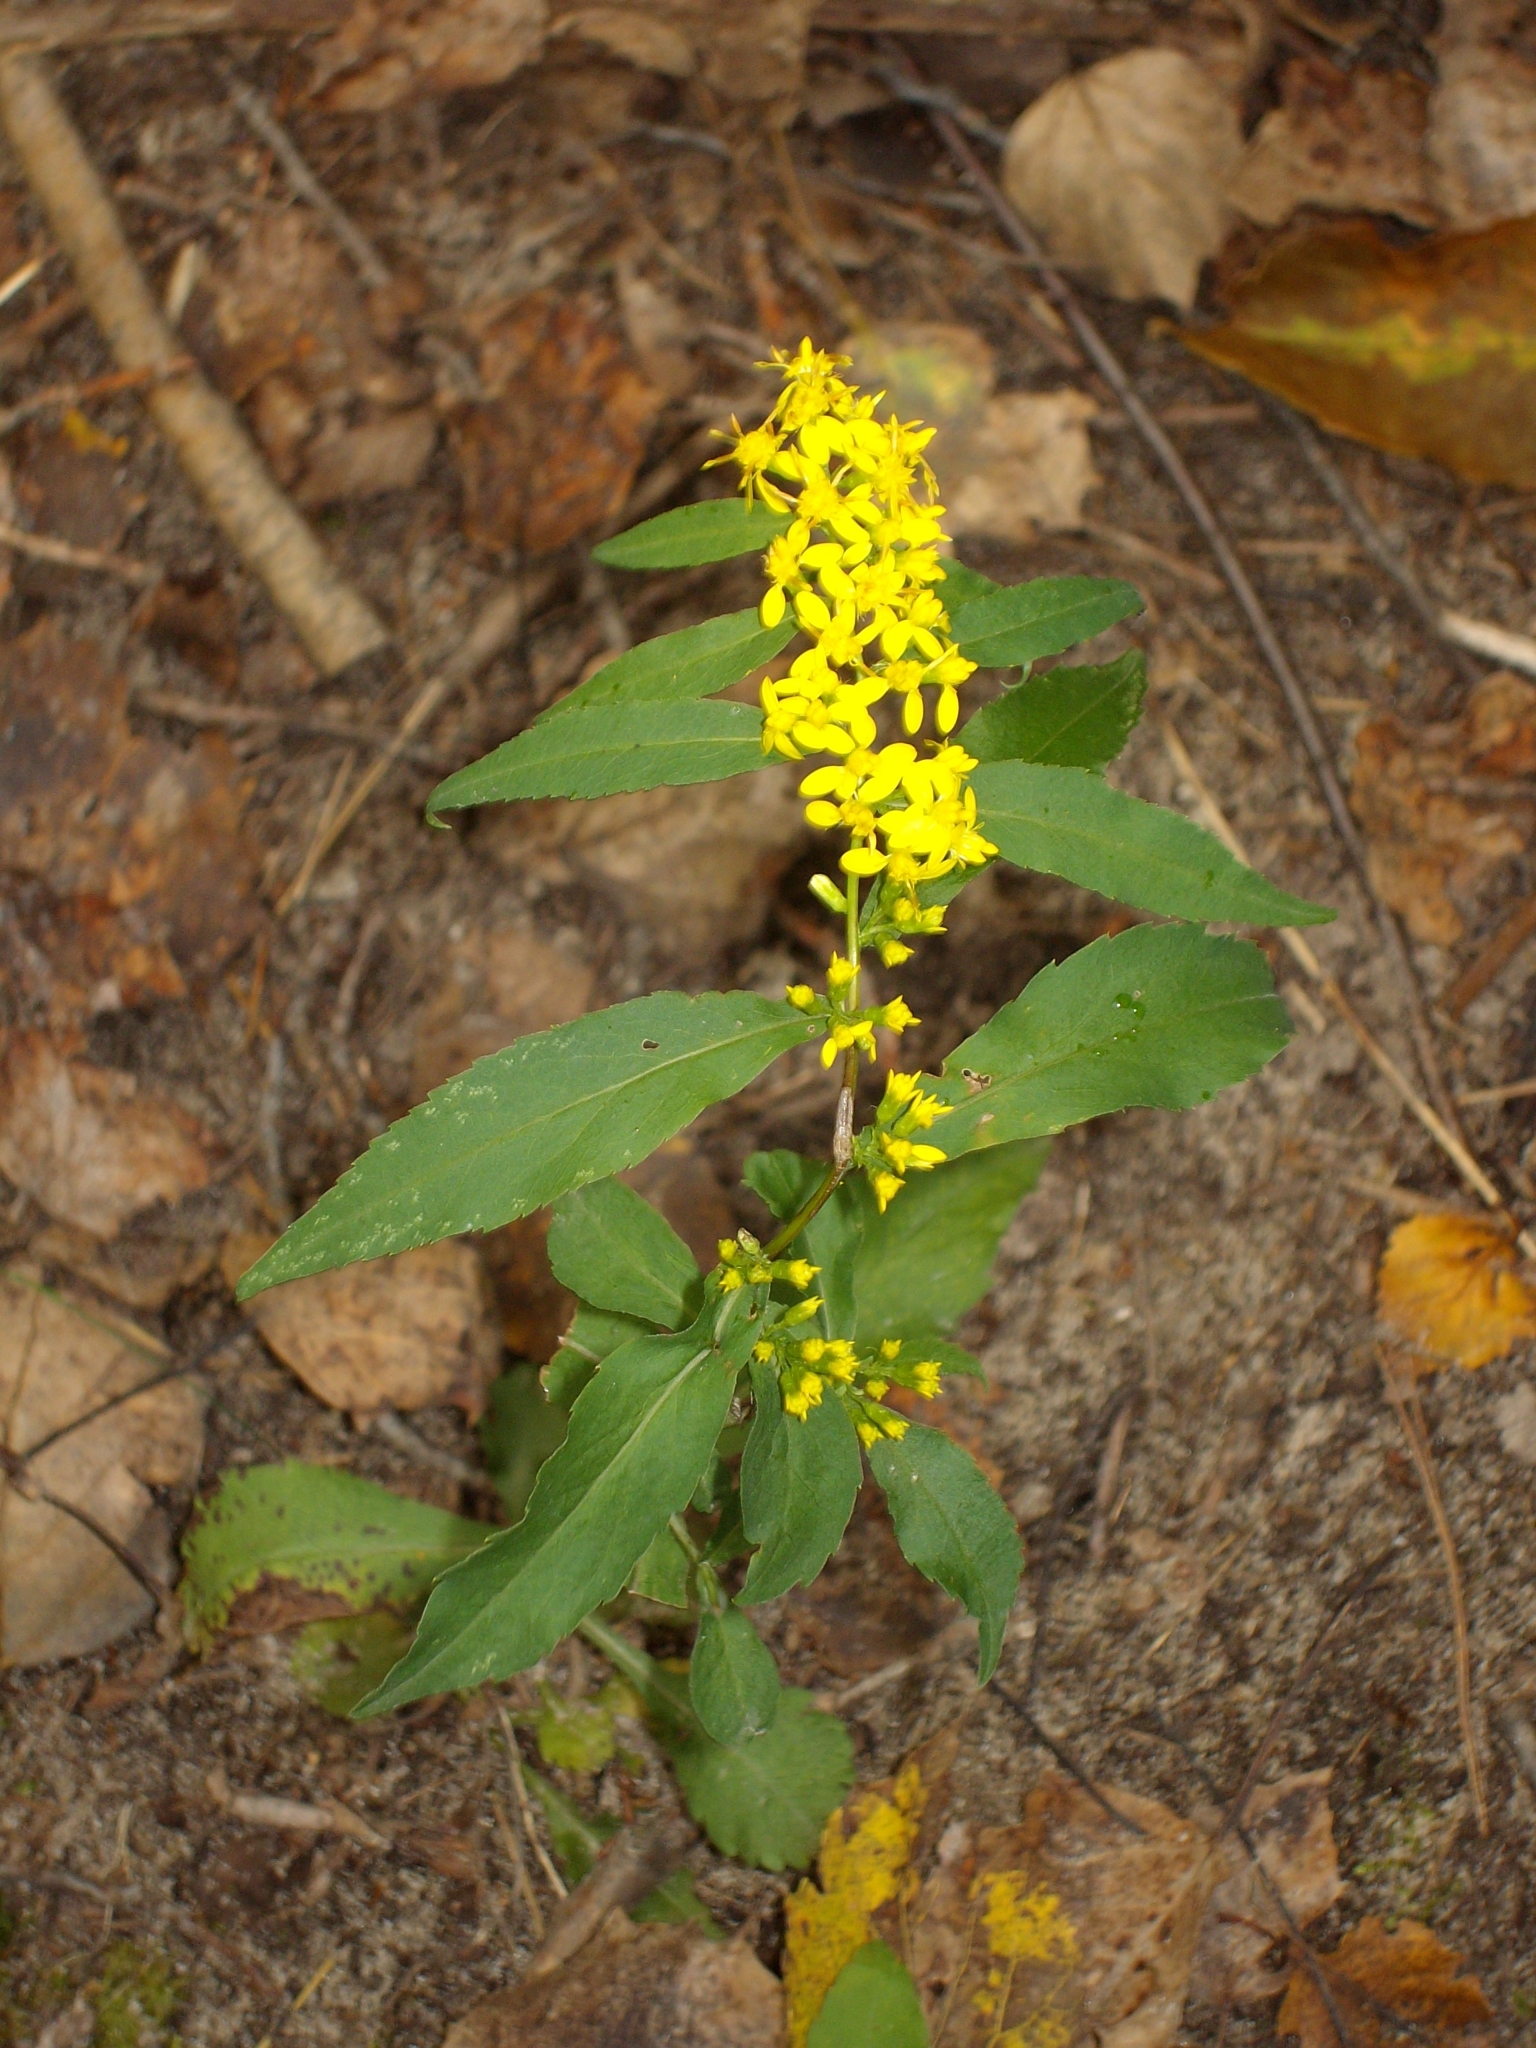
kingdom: Plantae
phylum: Tracheophyta
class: Magnoliopsida
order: Asterales
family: Asteraceae
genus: Solidago
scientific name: Solidago caesia
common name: Woodland goldenrod
